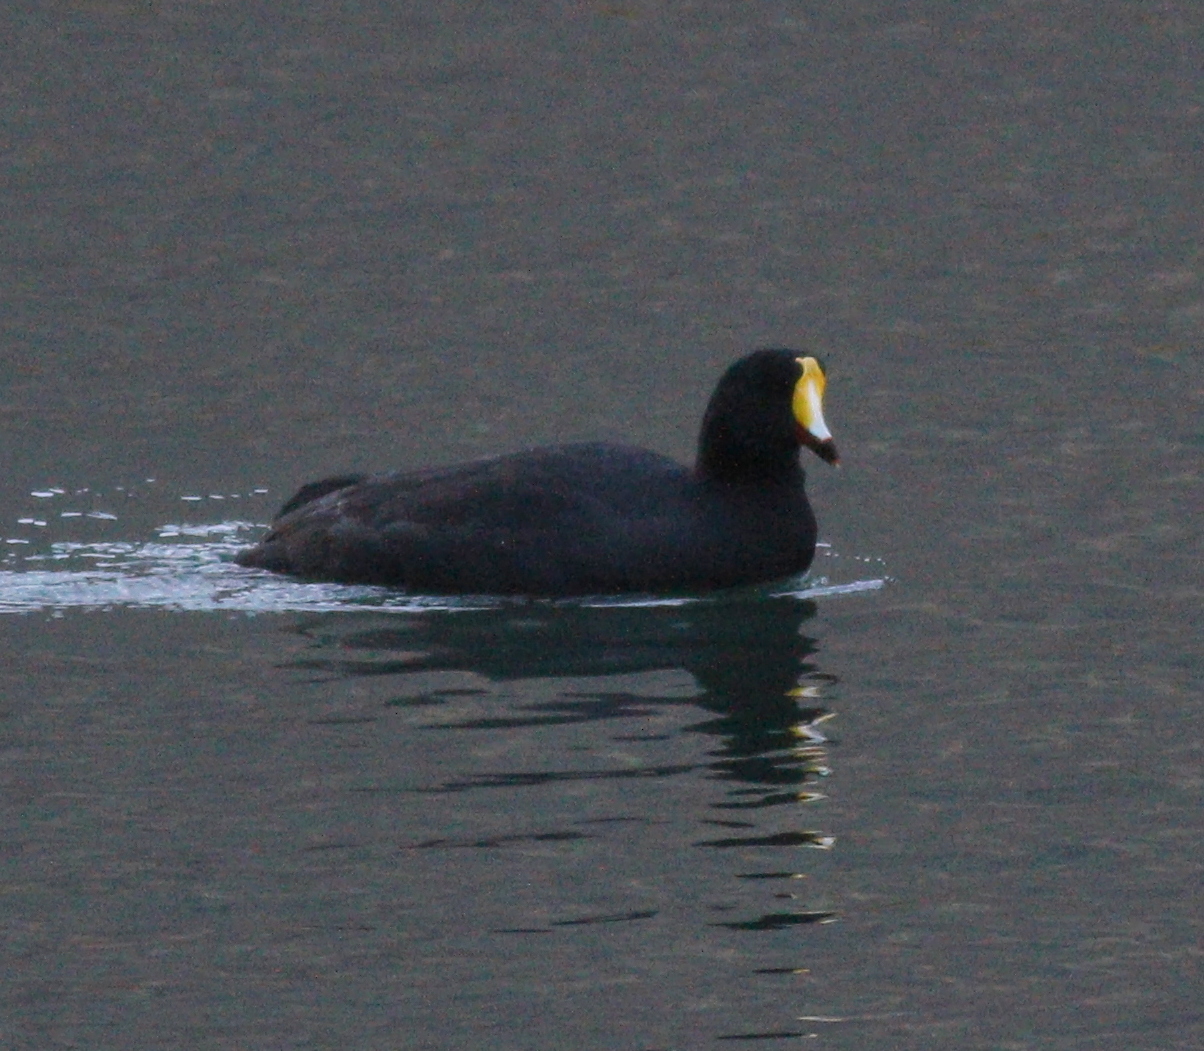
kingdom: Animalia
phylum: Chordata
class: Aves
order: Gruiformes
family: Rallidae
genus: Fulica
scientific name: Fulica gigantea
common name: Giant coot
